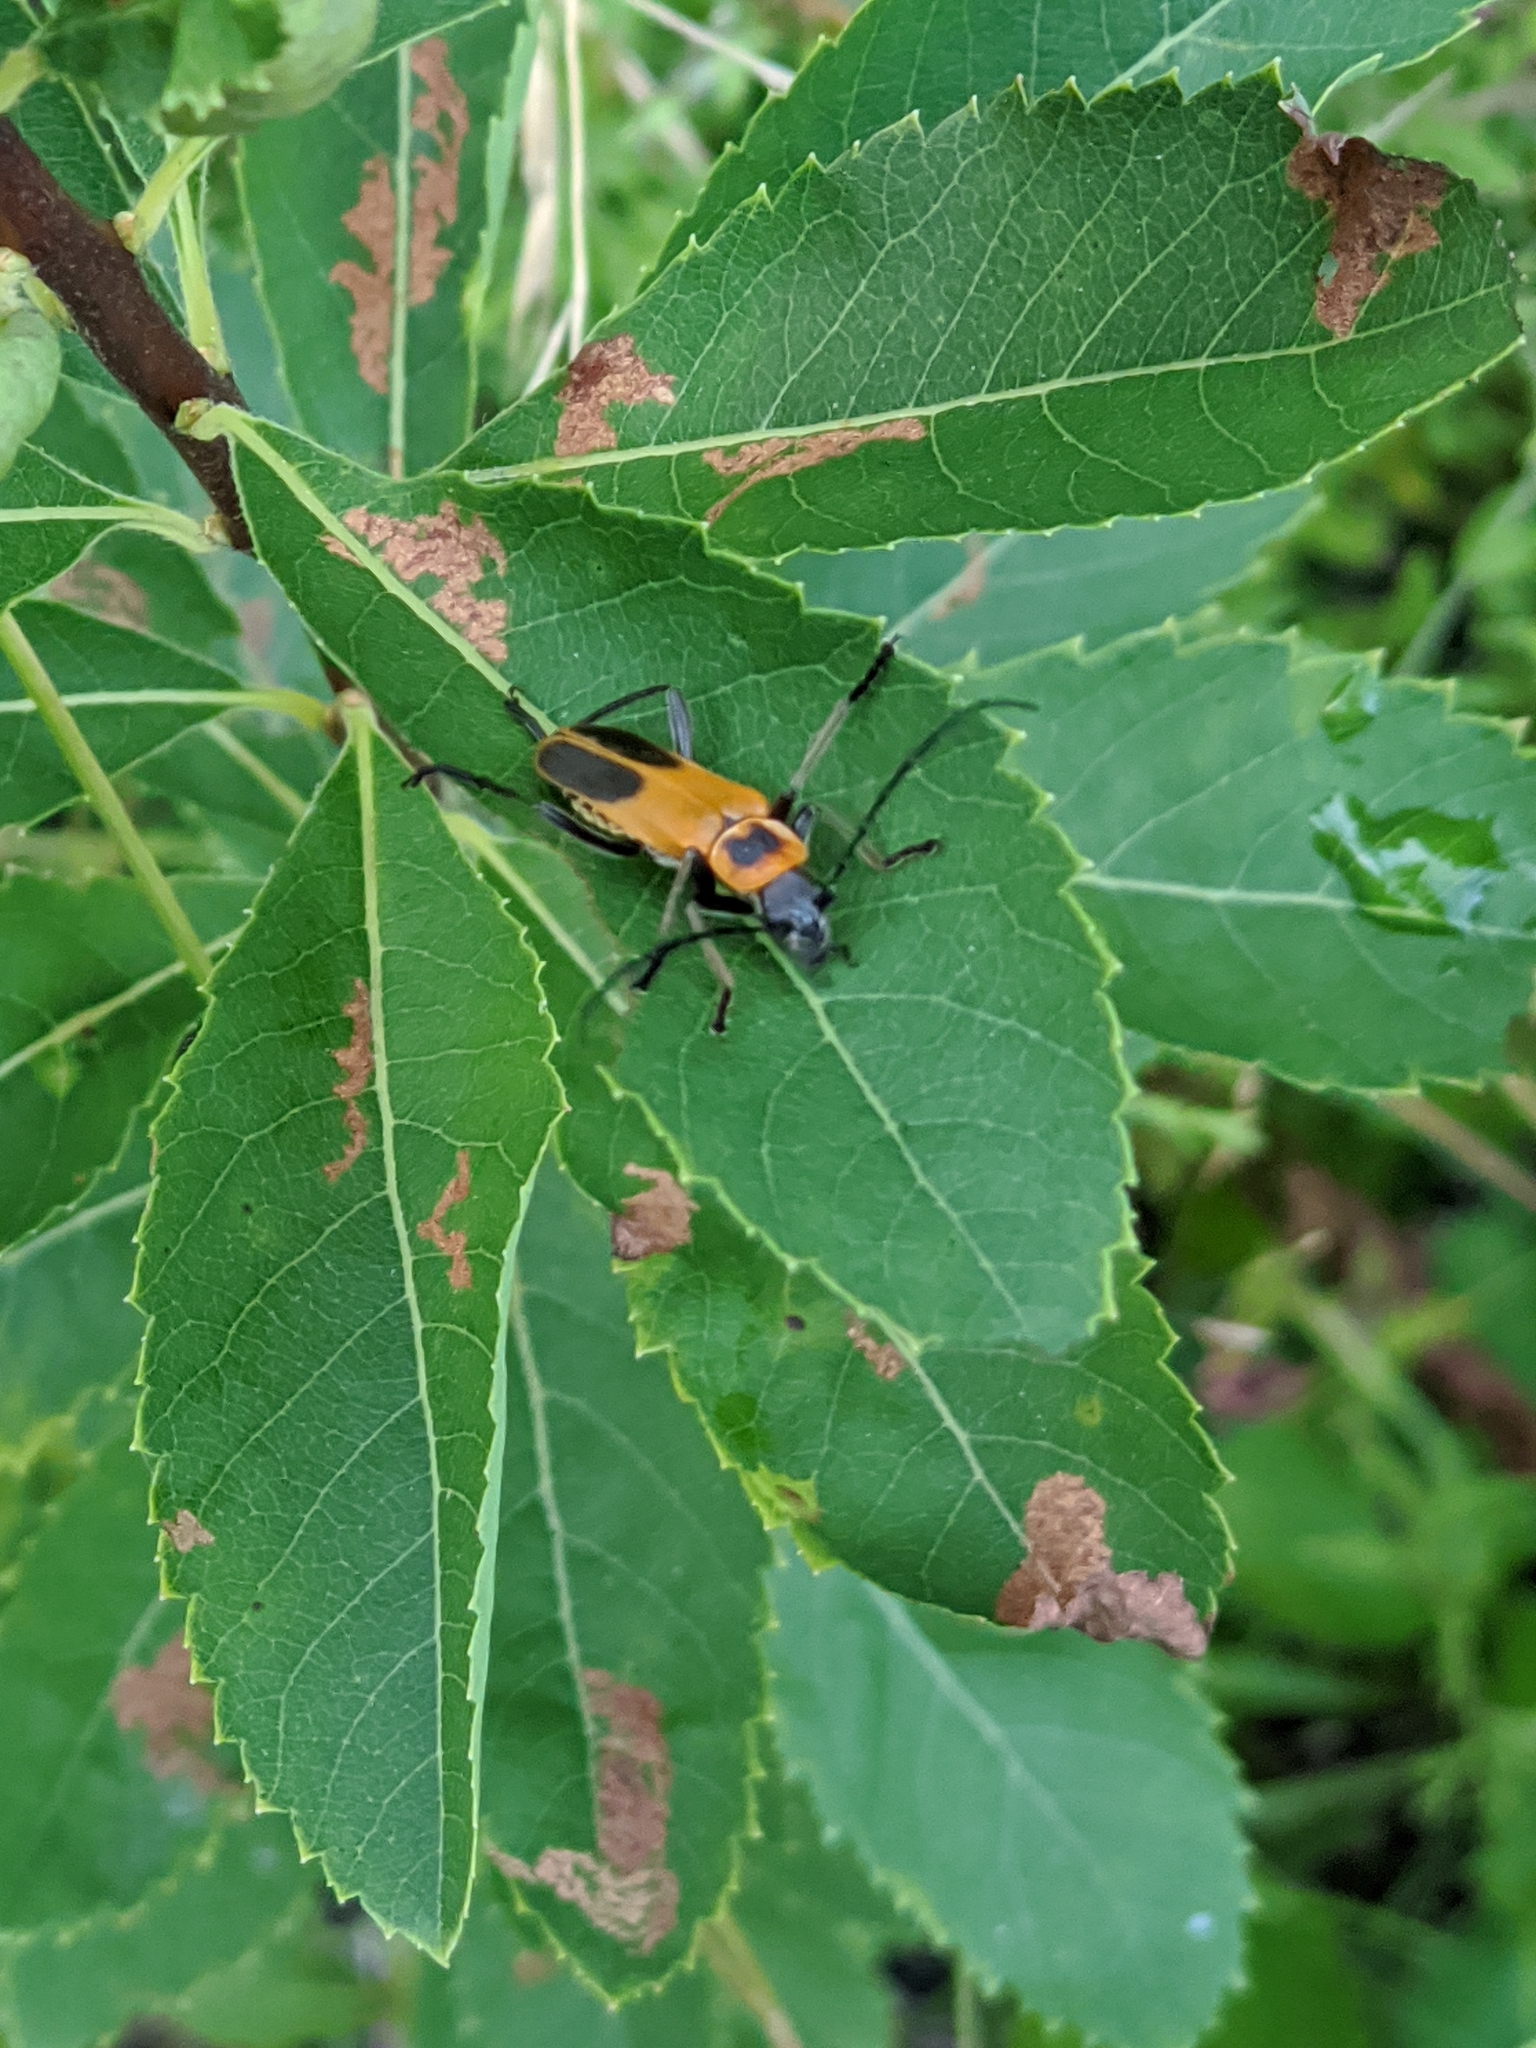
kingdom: Animalia
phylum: Arthropoda
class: Insecta
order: Coleoptera
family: Cantharidae
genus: Chauliognathus
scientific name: Chauliognathus pensylvanicus
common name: Goldenrod soldier beetle
